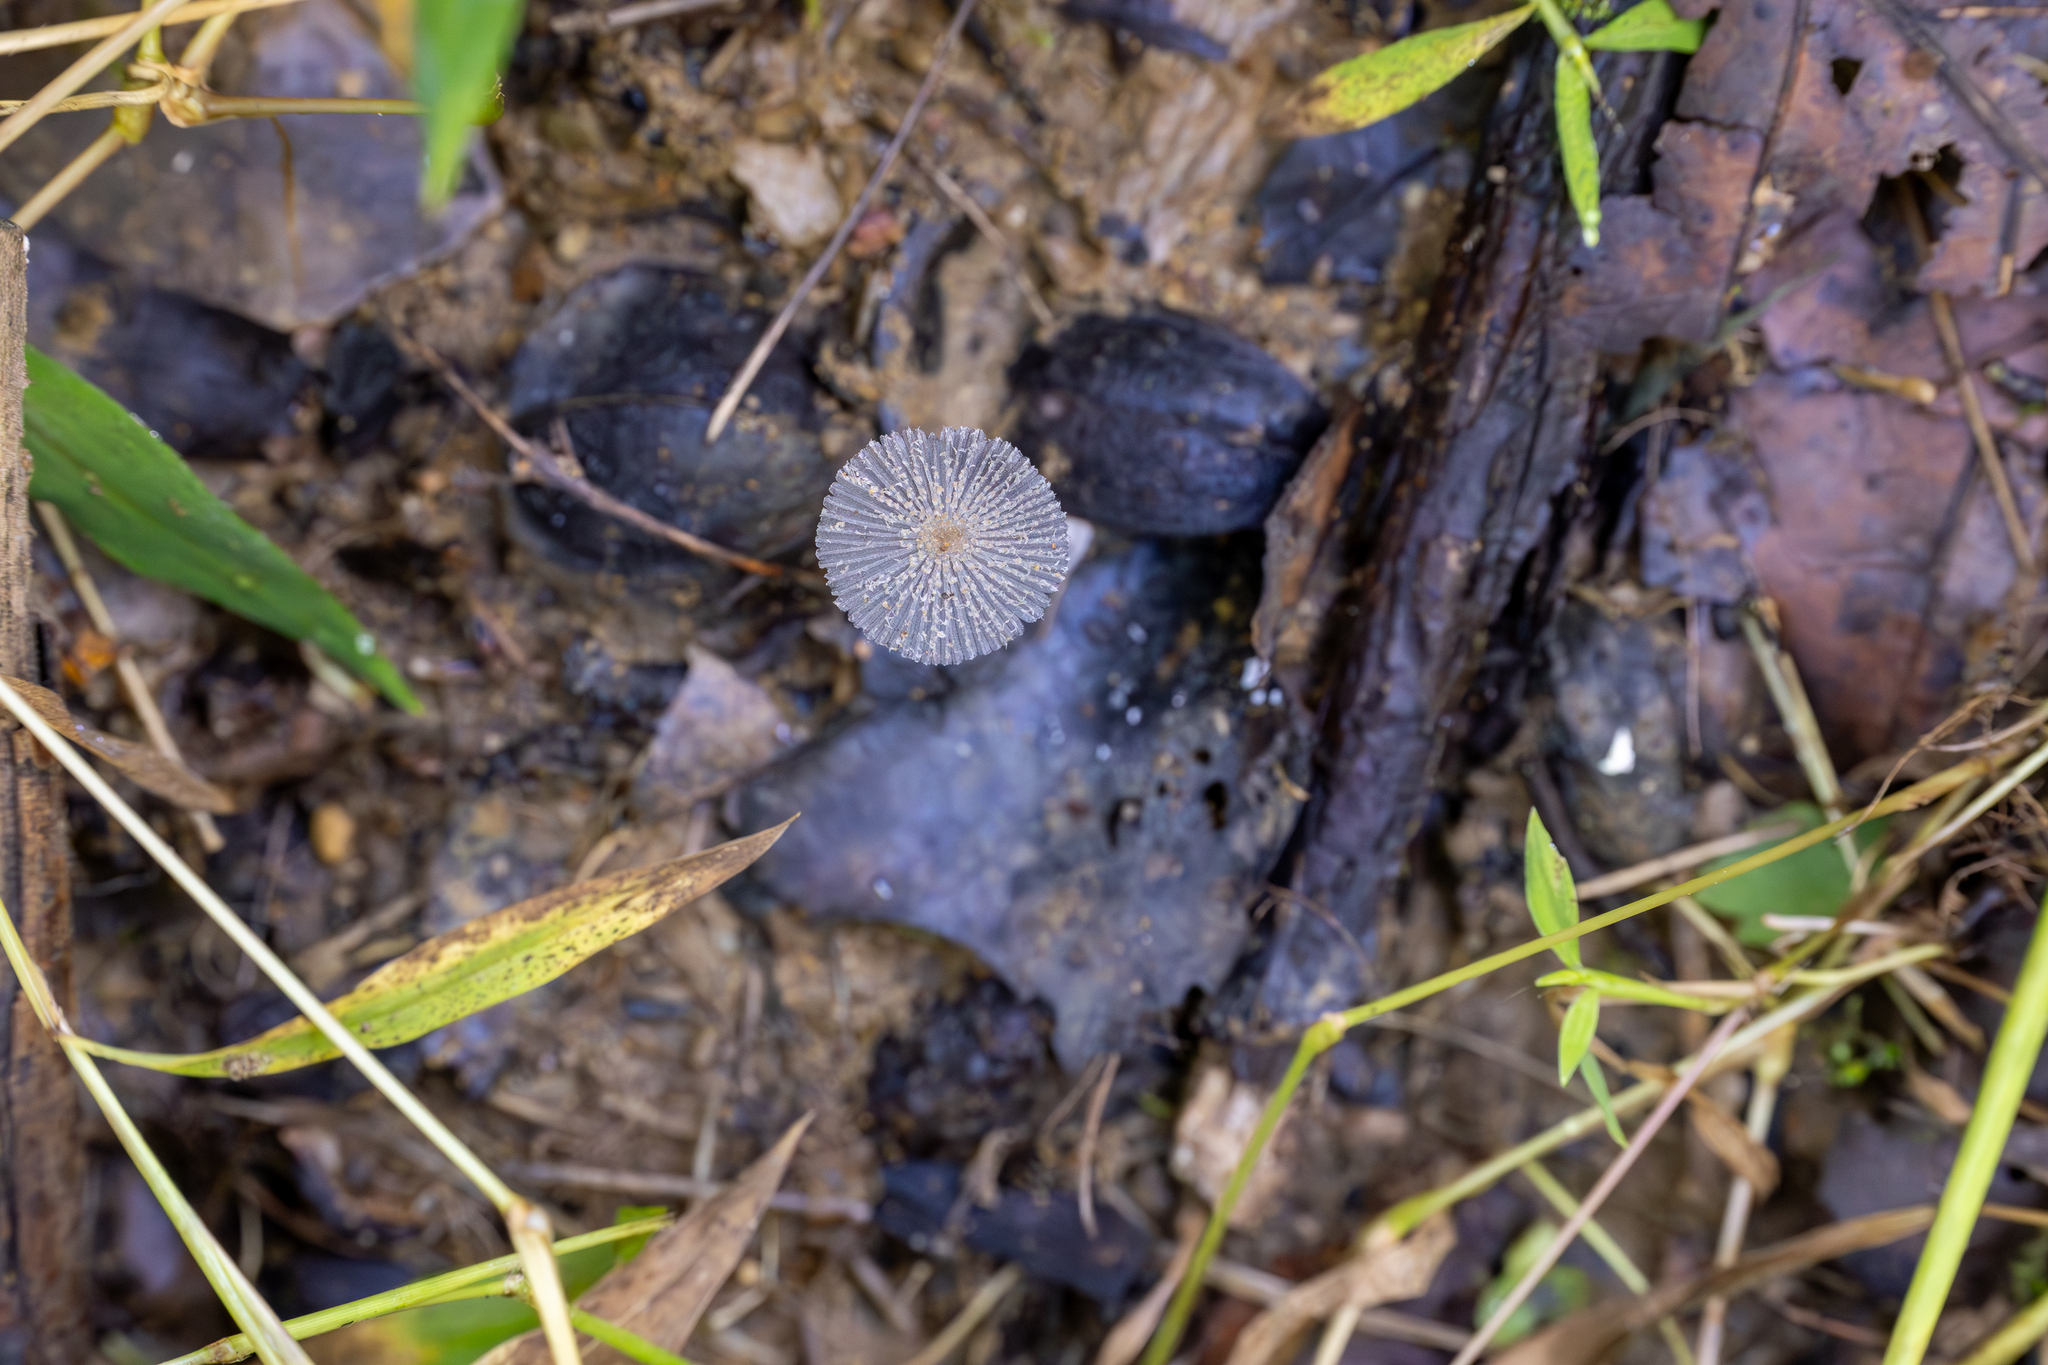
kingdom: Fungi
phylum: Basidiomycota
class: Agaricomycetes
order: Agaricales
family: Psathyrellaceae
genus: Parasola
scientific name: Parasola plicatilis
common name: Pleated inkcap
